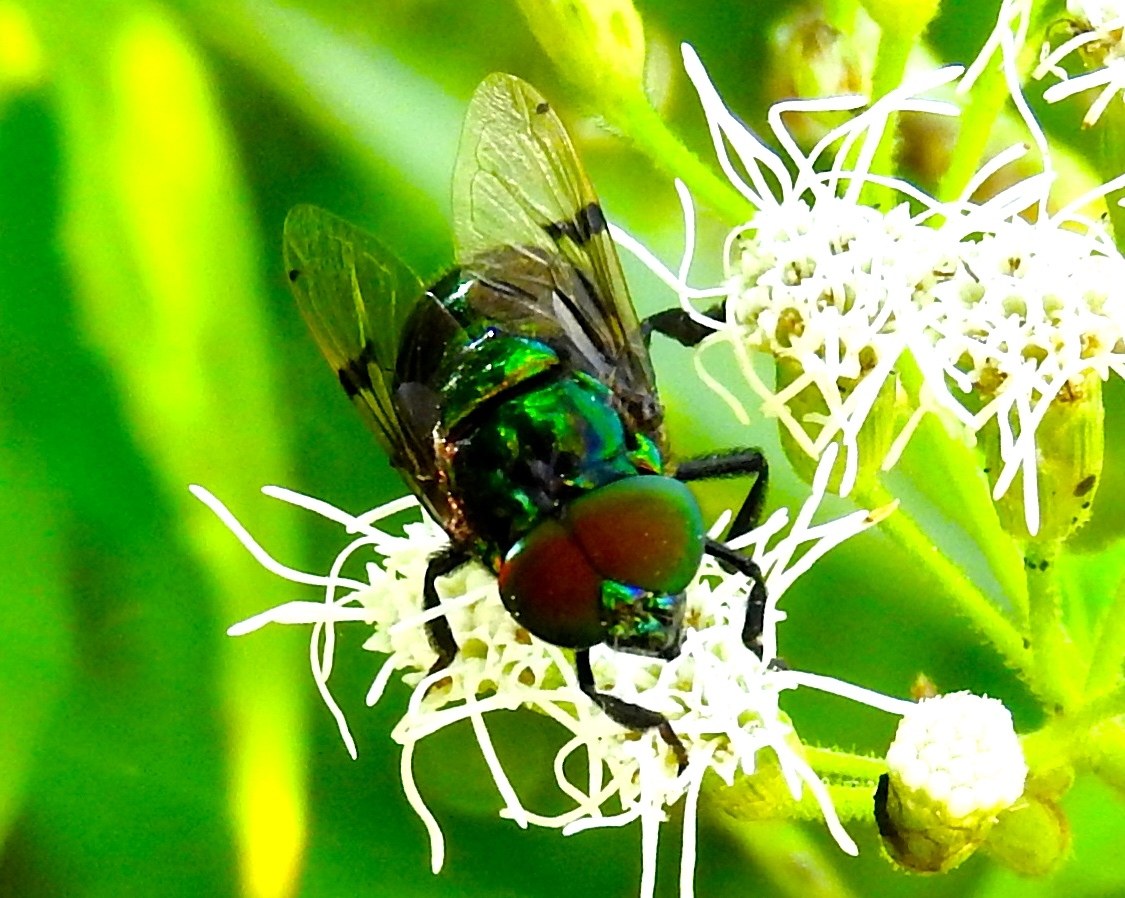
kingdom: Animalia
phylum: Arthropoda
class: Insecta
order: Diptera
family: Syrphidae
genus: Ornidia
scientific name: Ornidia obesa
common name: Syrphid fly
